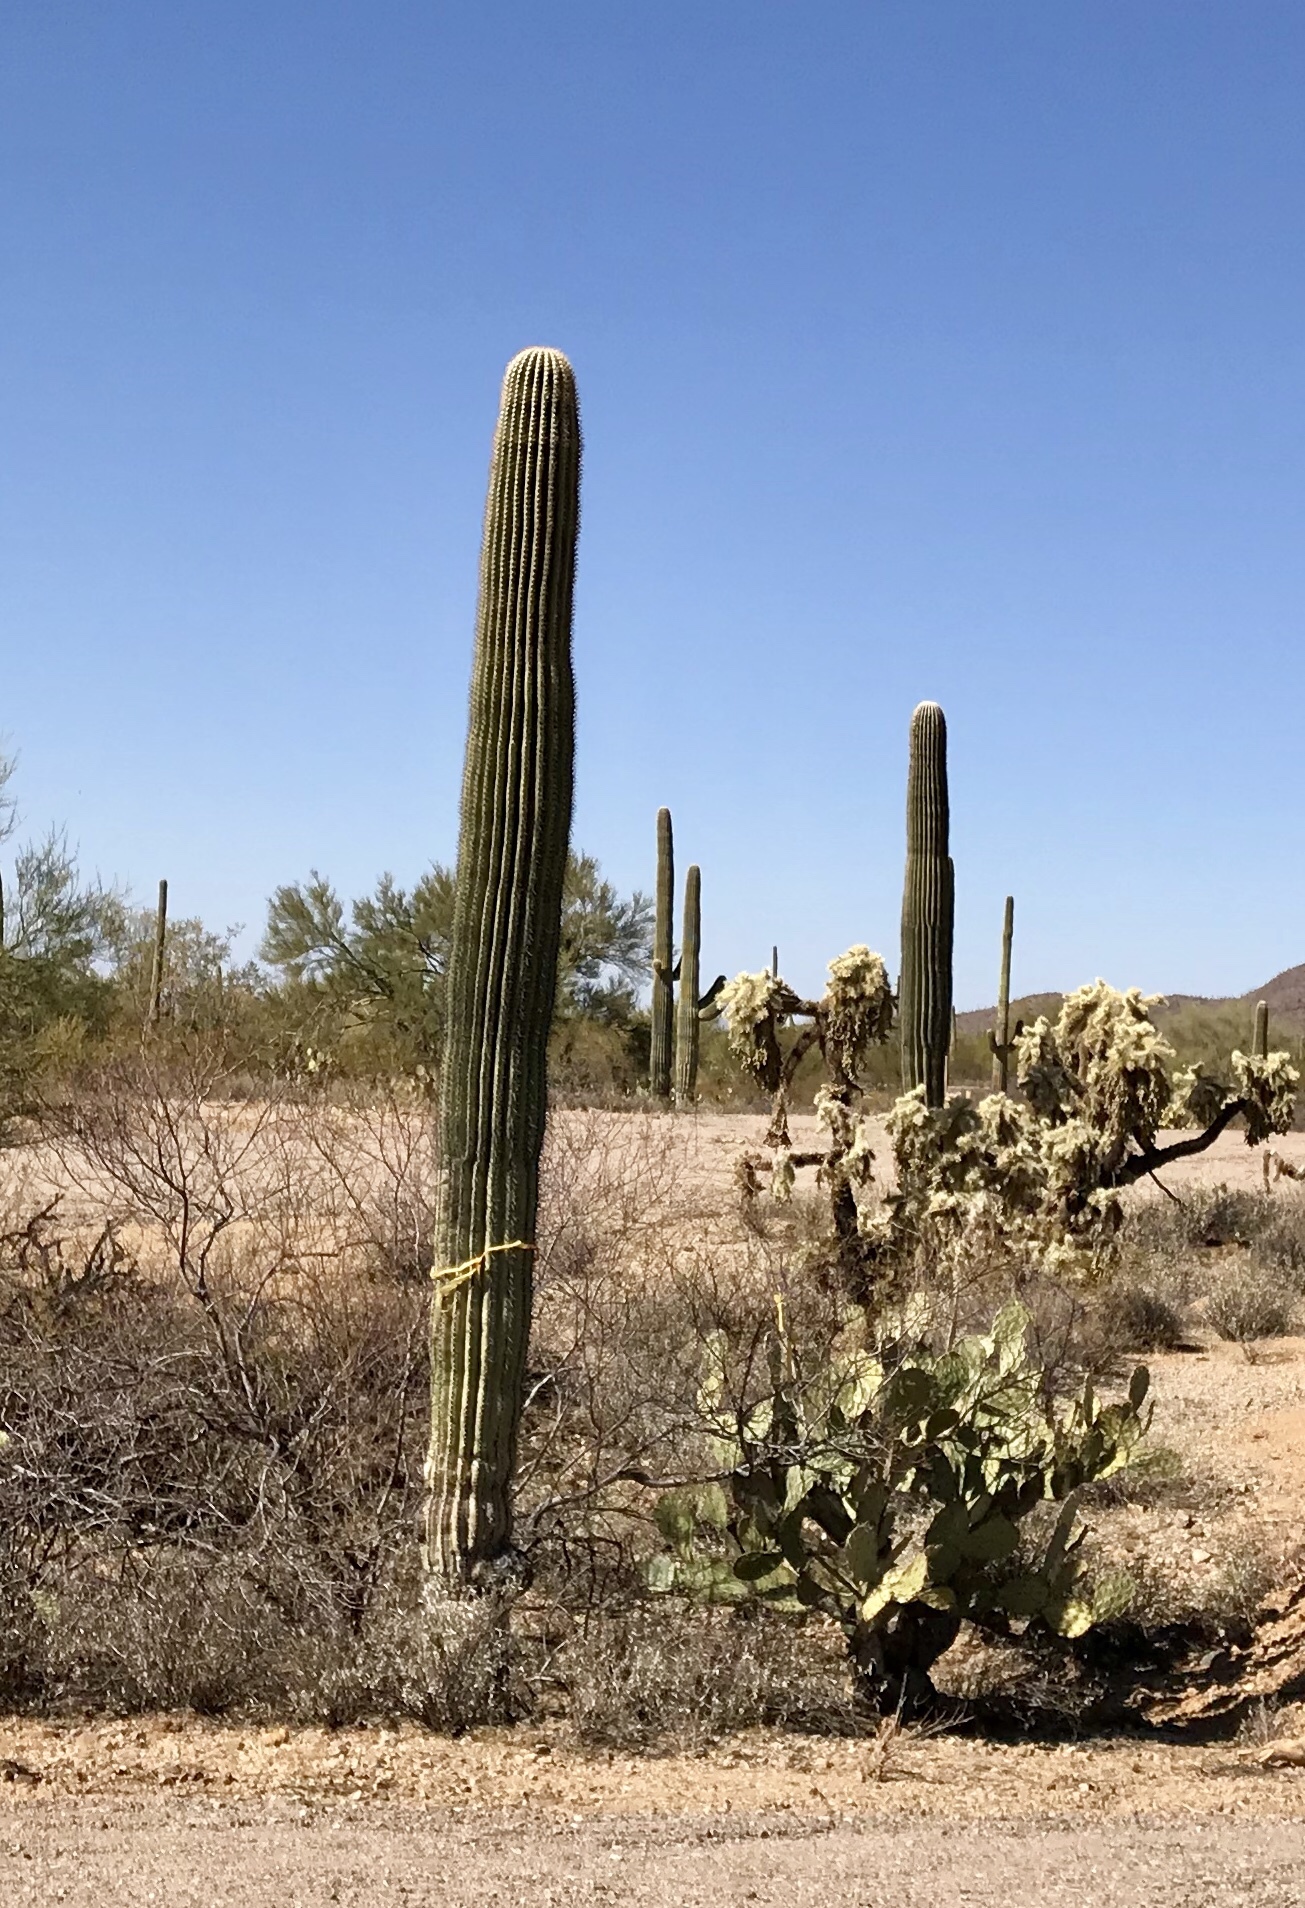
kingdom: Plantae
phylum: Tracheophyta
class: Magnoliopsida
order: Caryophyllales
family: Cactaceae
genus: Carnegiea
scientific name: Carnegiea gigantea
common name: Saguaro
